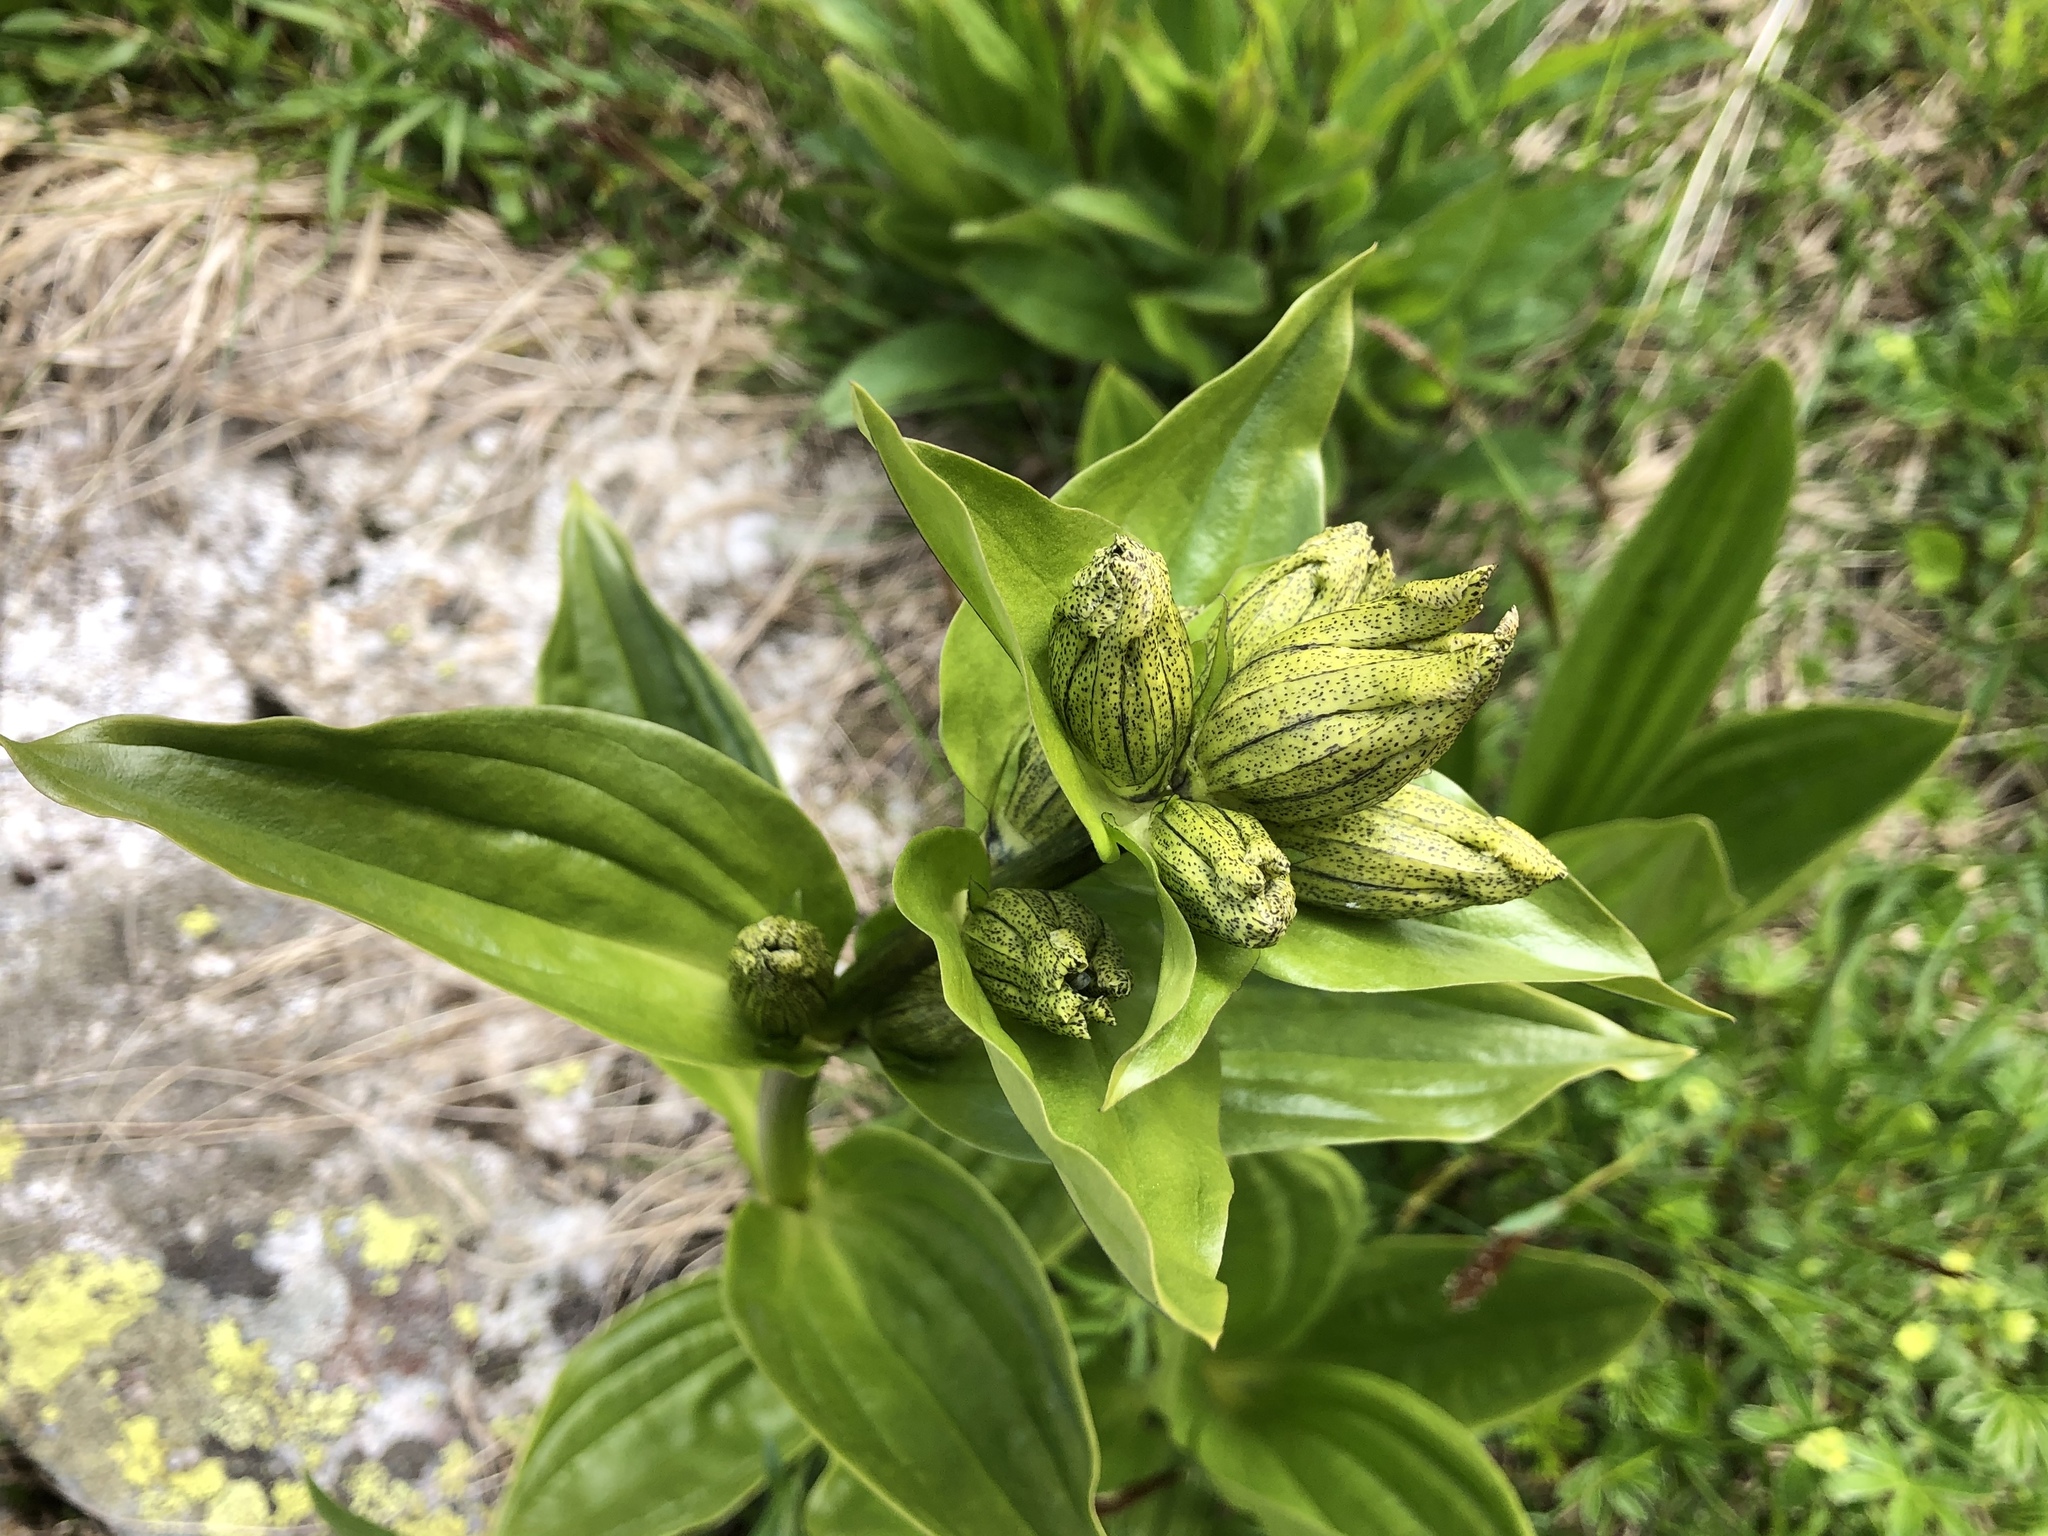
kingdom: Plantae
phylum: Tracheophyta
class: Magnoliopsida
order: Gentianales
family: Gentianaceae
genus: Gentiana
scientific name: Gentiana punctata
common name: Spotted gentian
